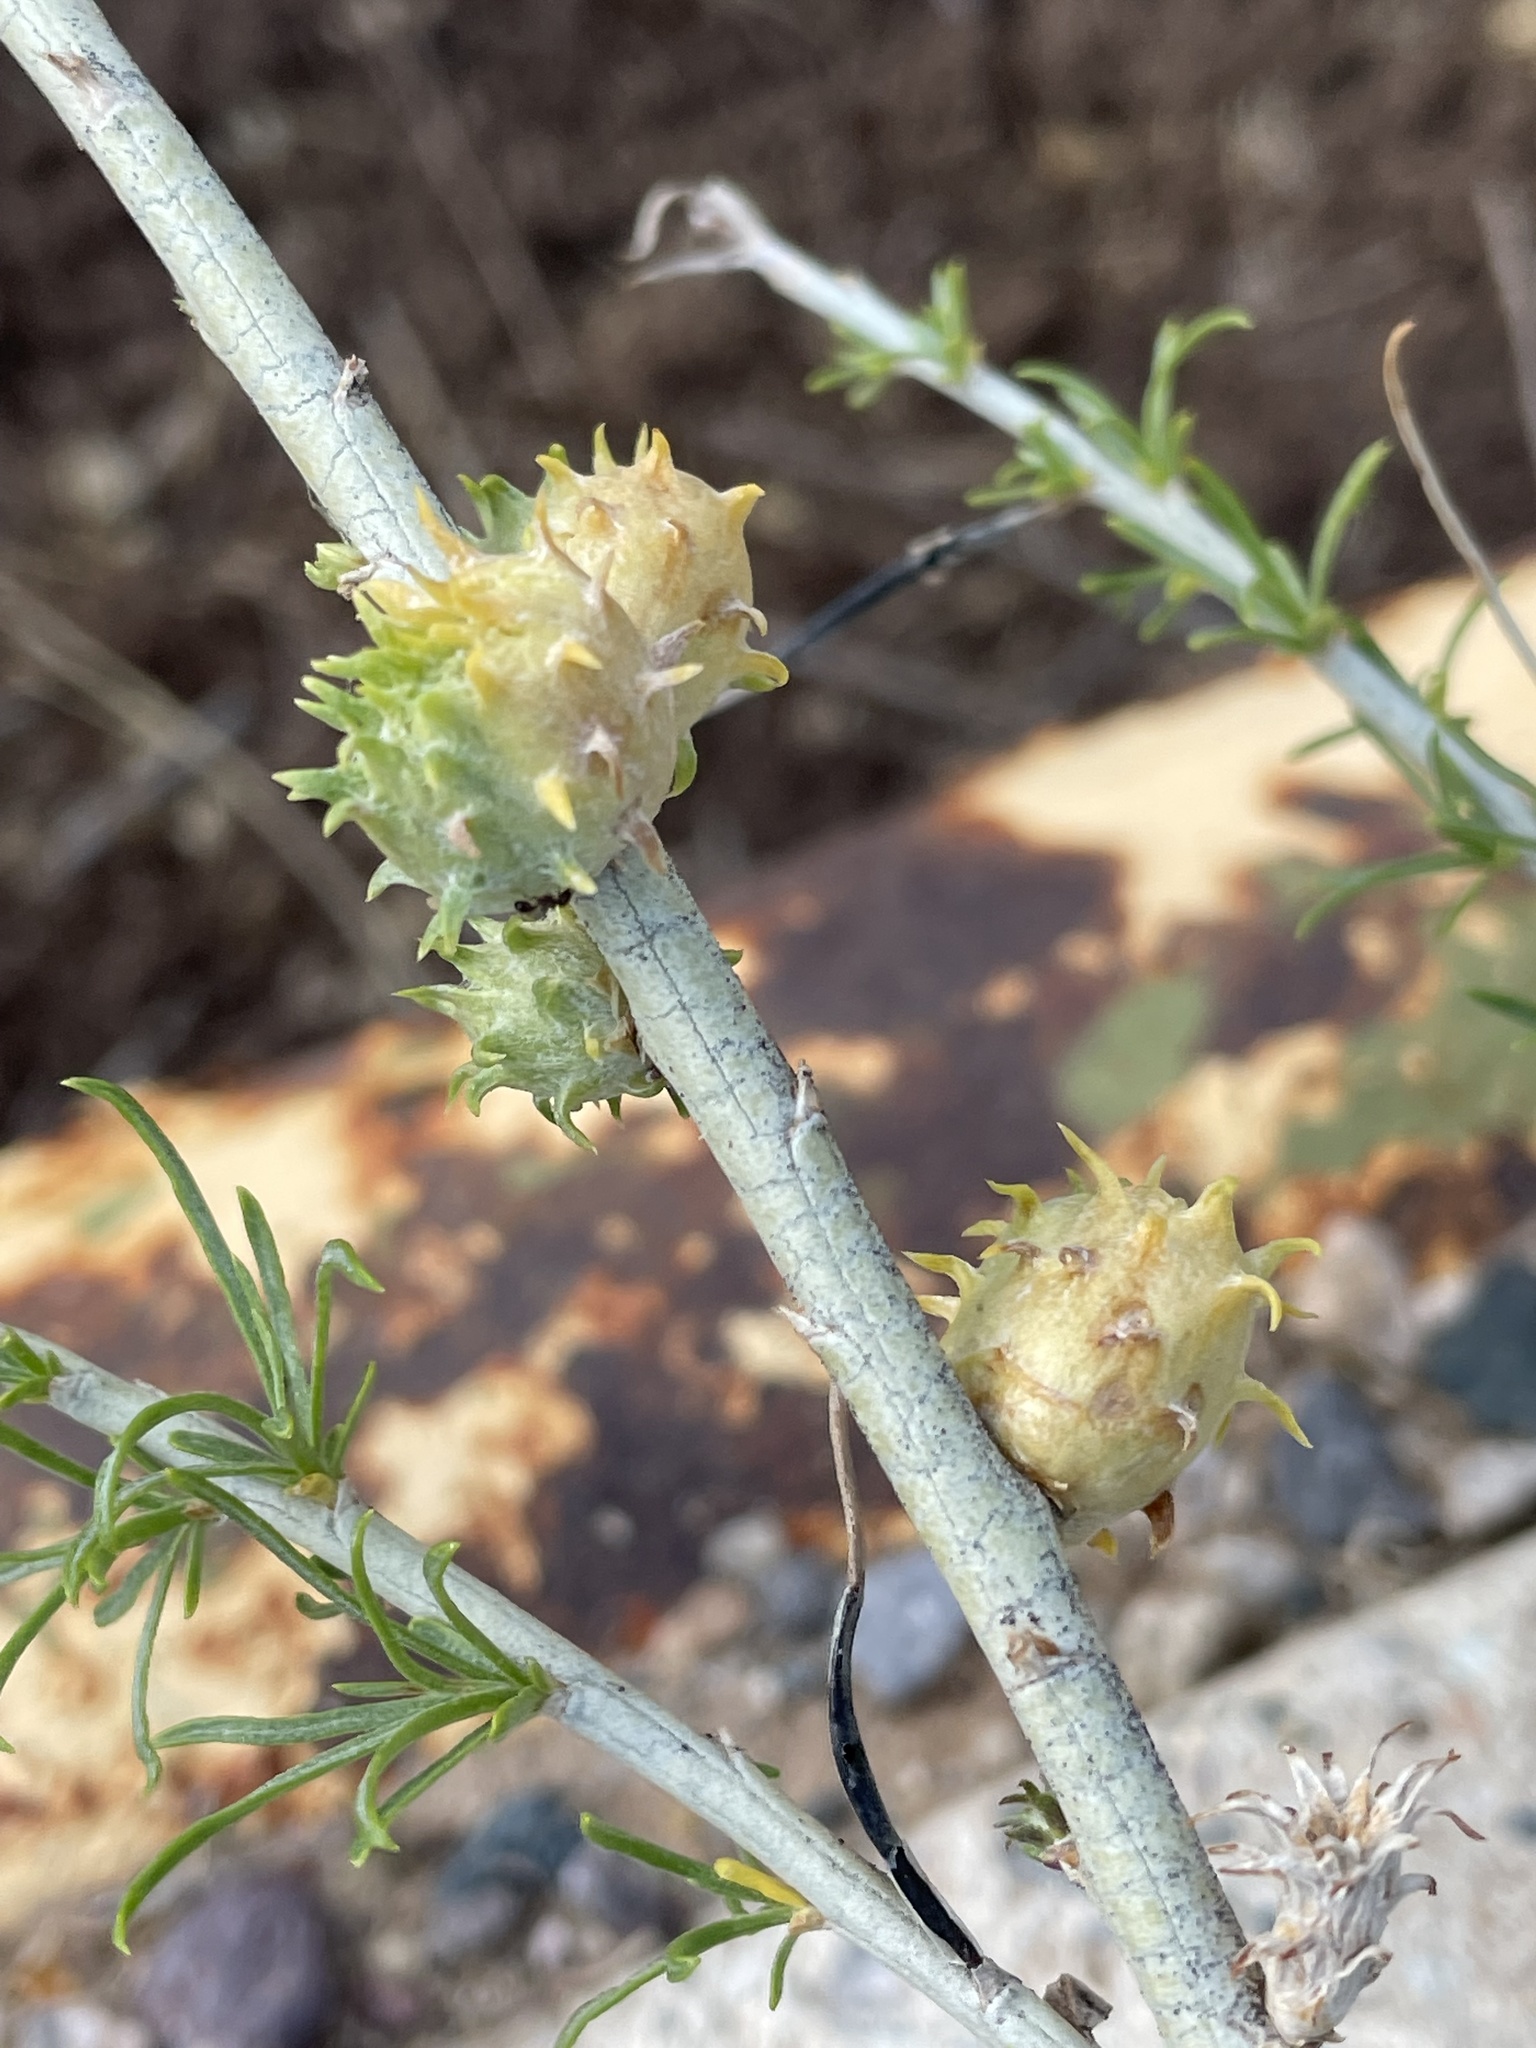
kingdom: Animalia
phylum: Arthropoda
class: Insecta
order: Diptera
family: Cecidomyiidae
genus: Rhopalomyia
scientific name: Rhopalomyia utahensis
